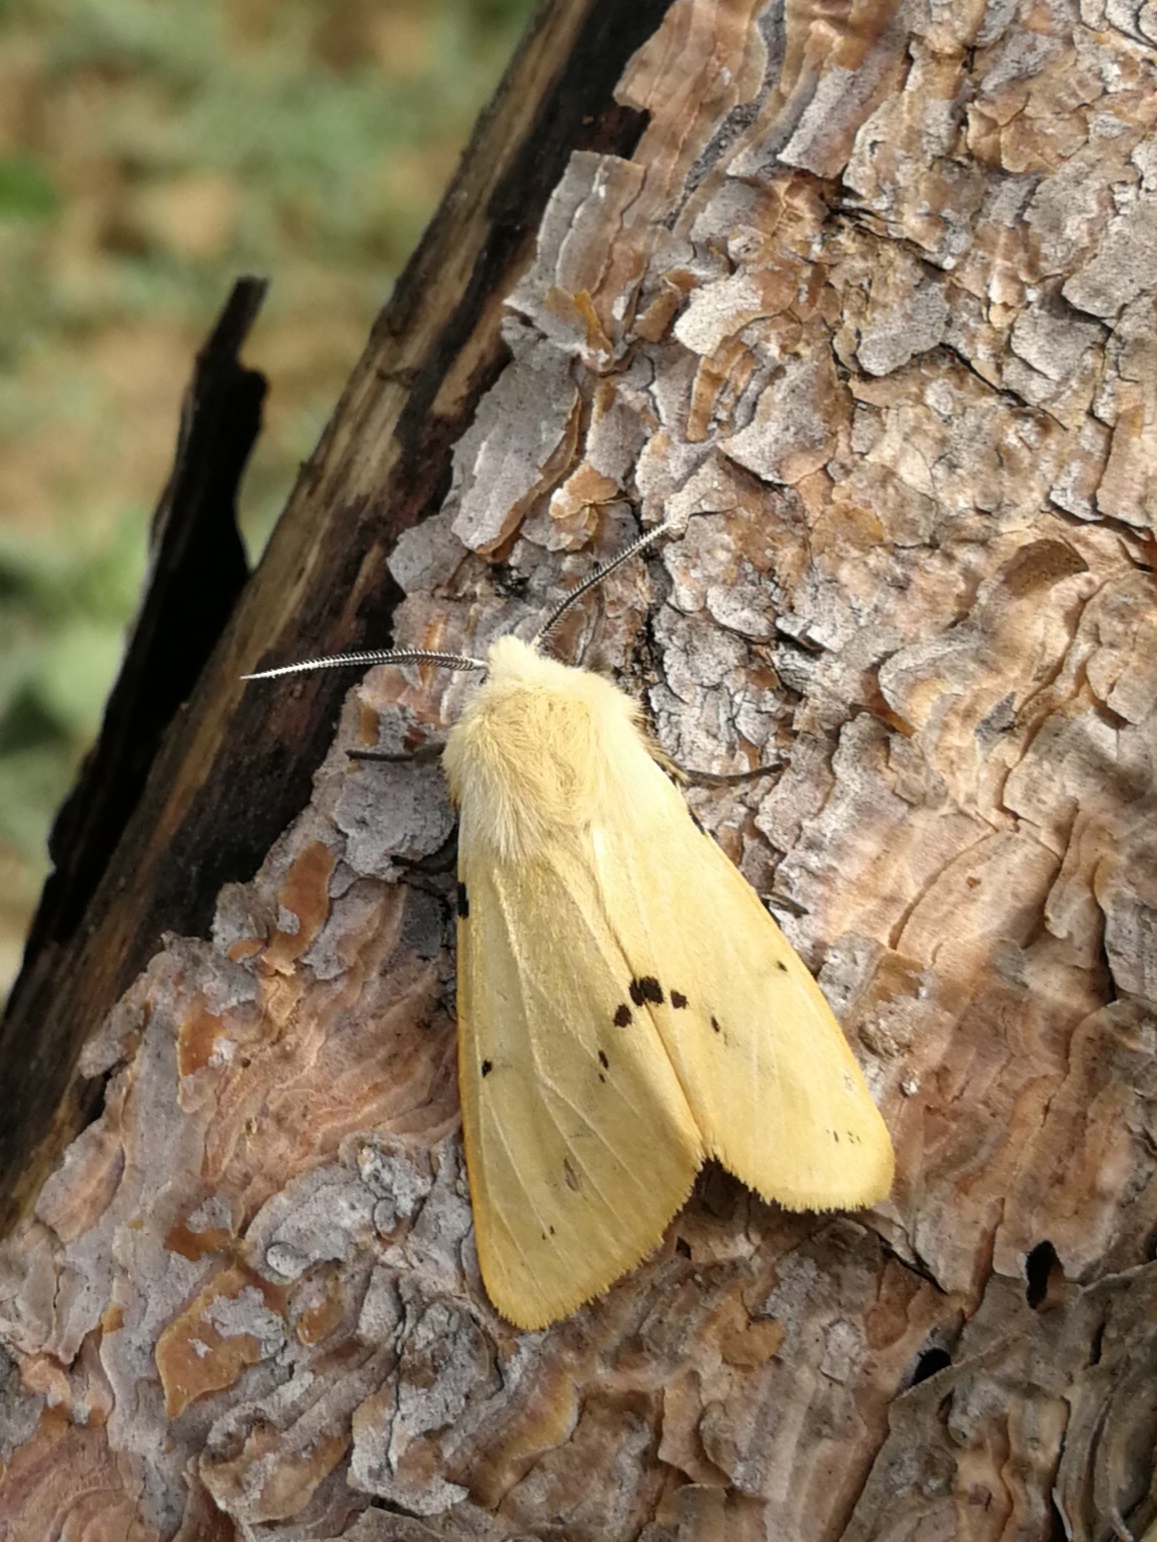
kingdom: Animalia
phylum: Arthropoda
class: Insecta
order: Lepidoptera
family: Erebidae
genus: Spilarctia
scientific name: Spilarctia lutea
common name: Buff ermine
